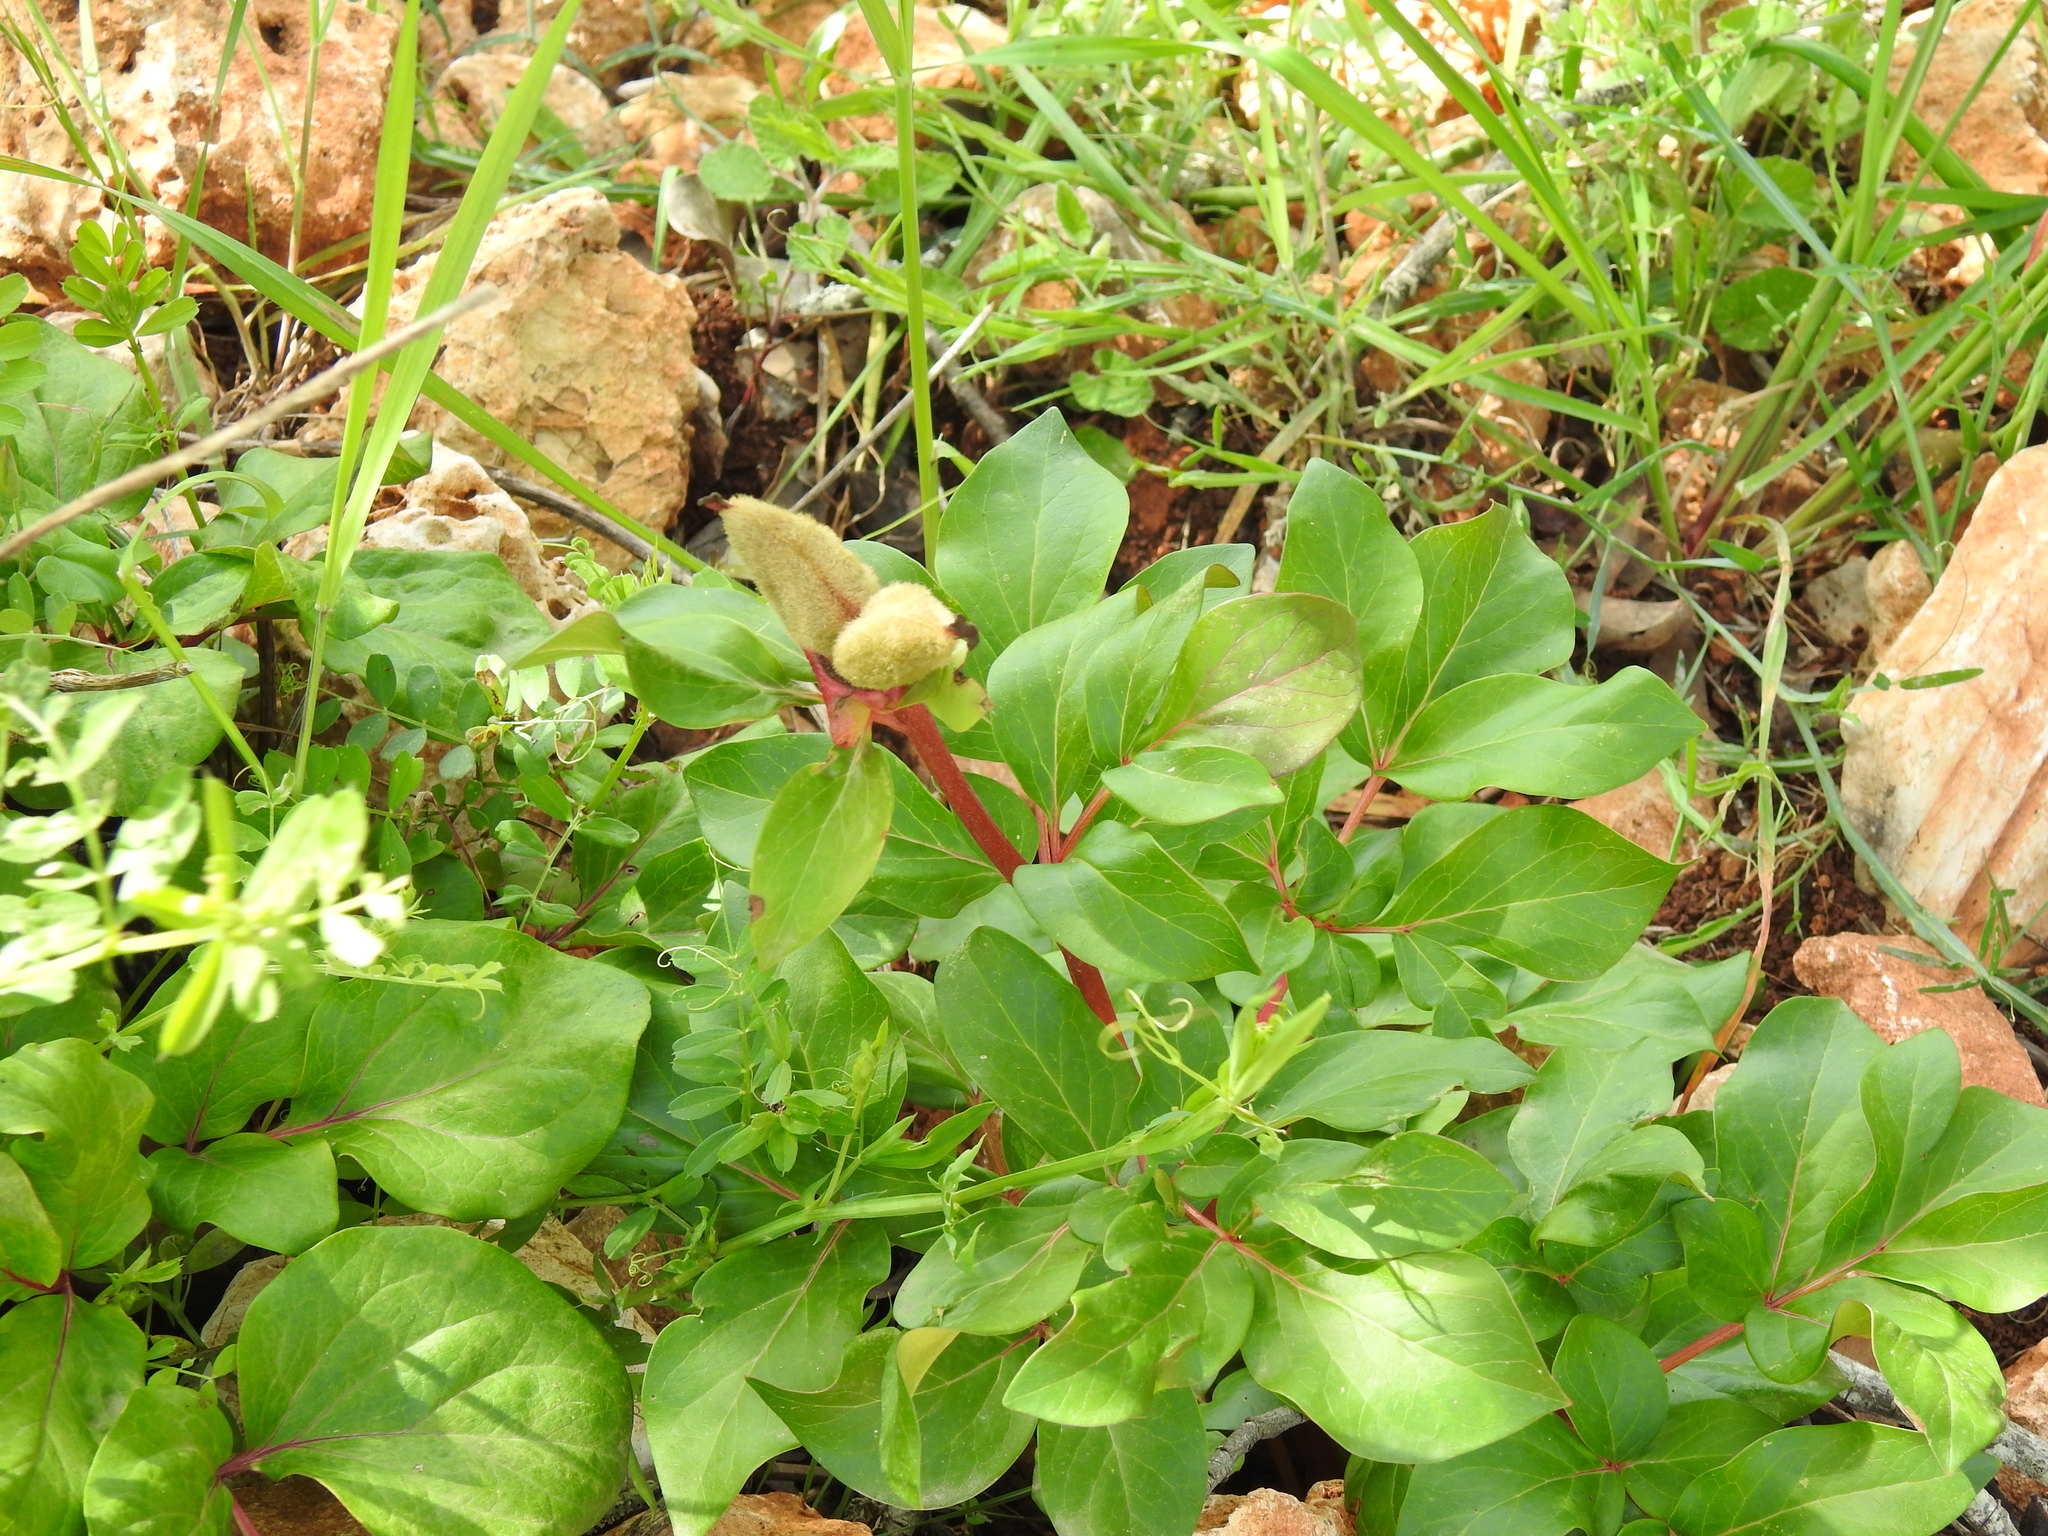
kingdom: Plantae
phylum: Tracheophyta
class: Magnoliopsida
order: Saxifragales
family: Paeoniaceae
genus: Paeonia
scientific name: Paeonia broteroi
